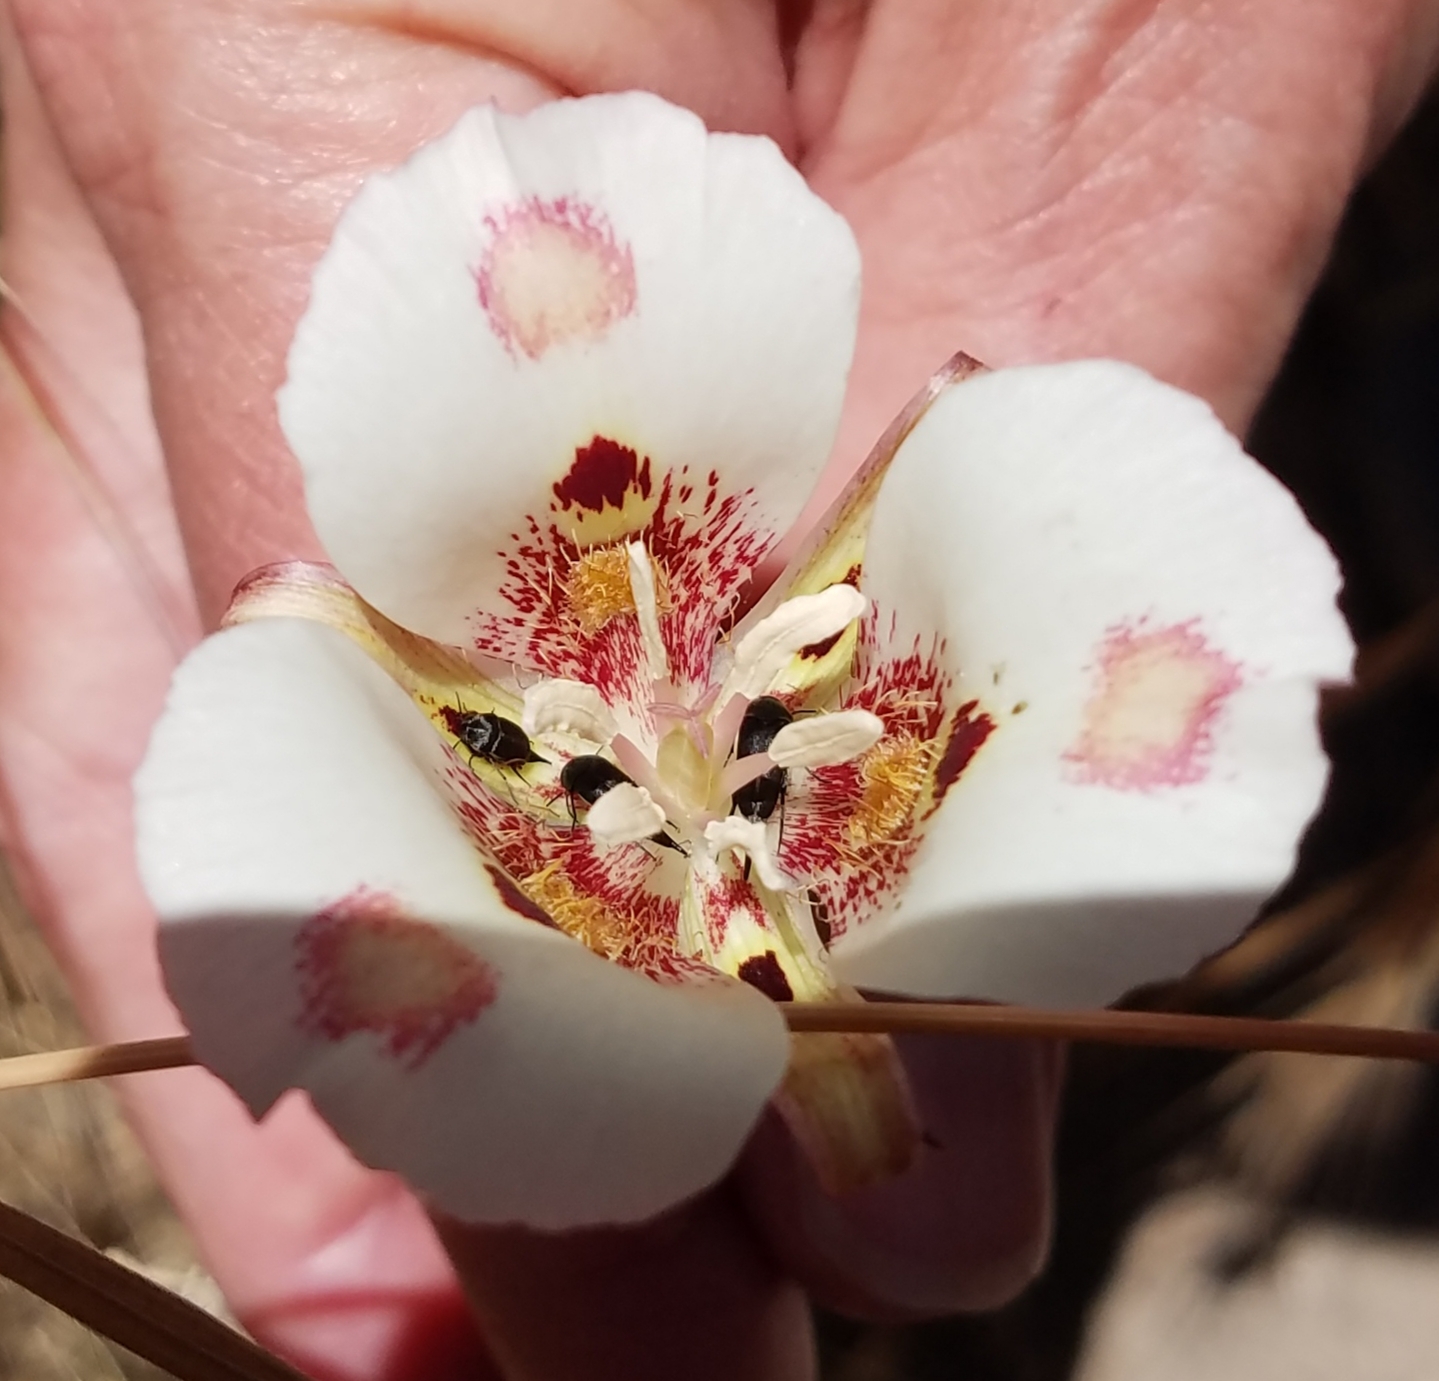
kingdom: Plantae
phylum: Tracheophyta
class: Liliopsida
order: Liliales
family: Liliaceae
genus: Calochortus
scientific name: Calochortus venustus
